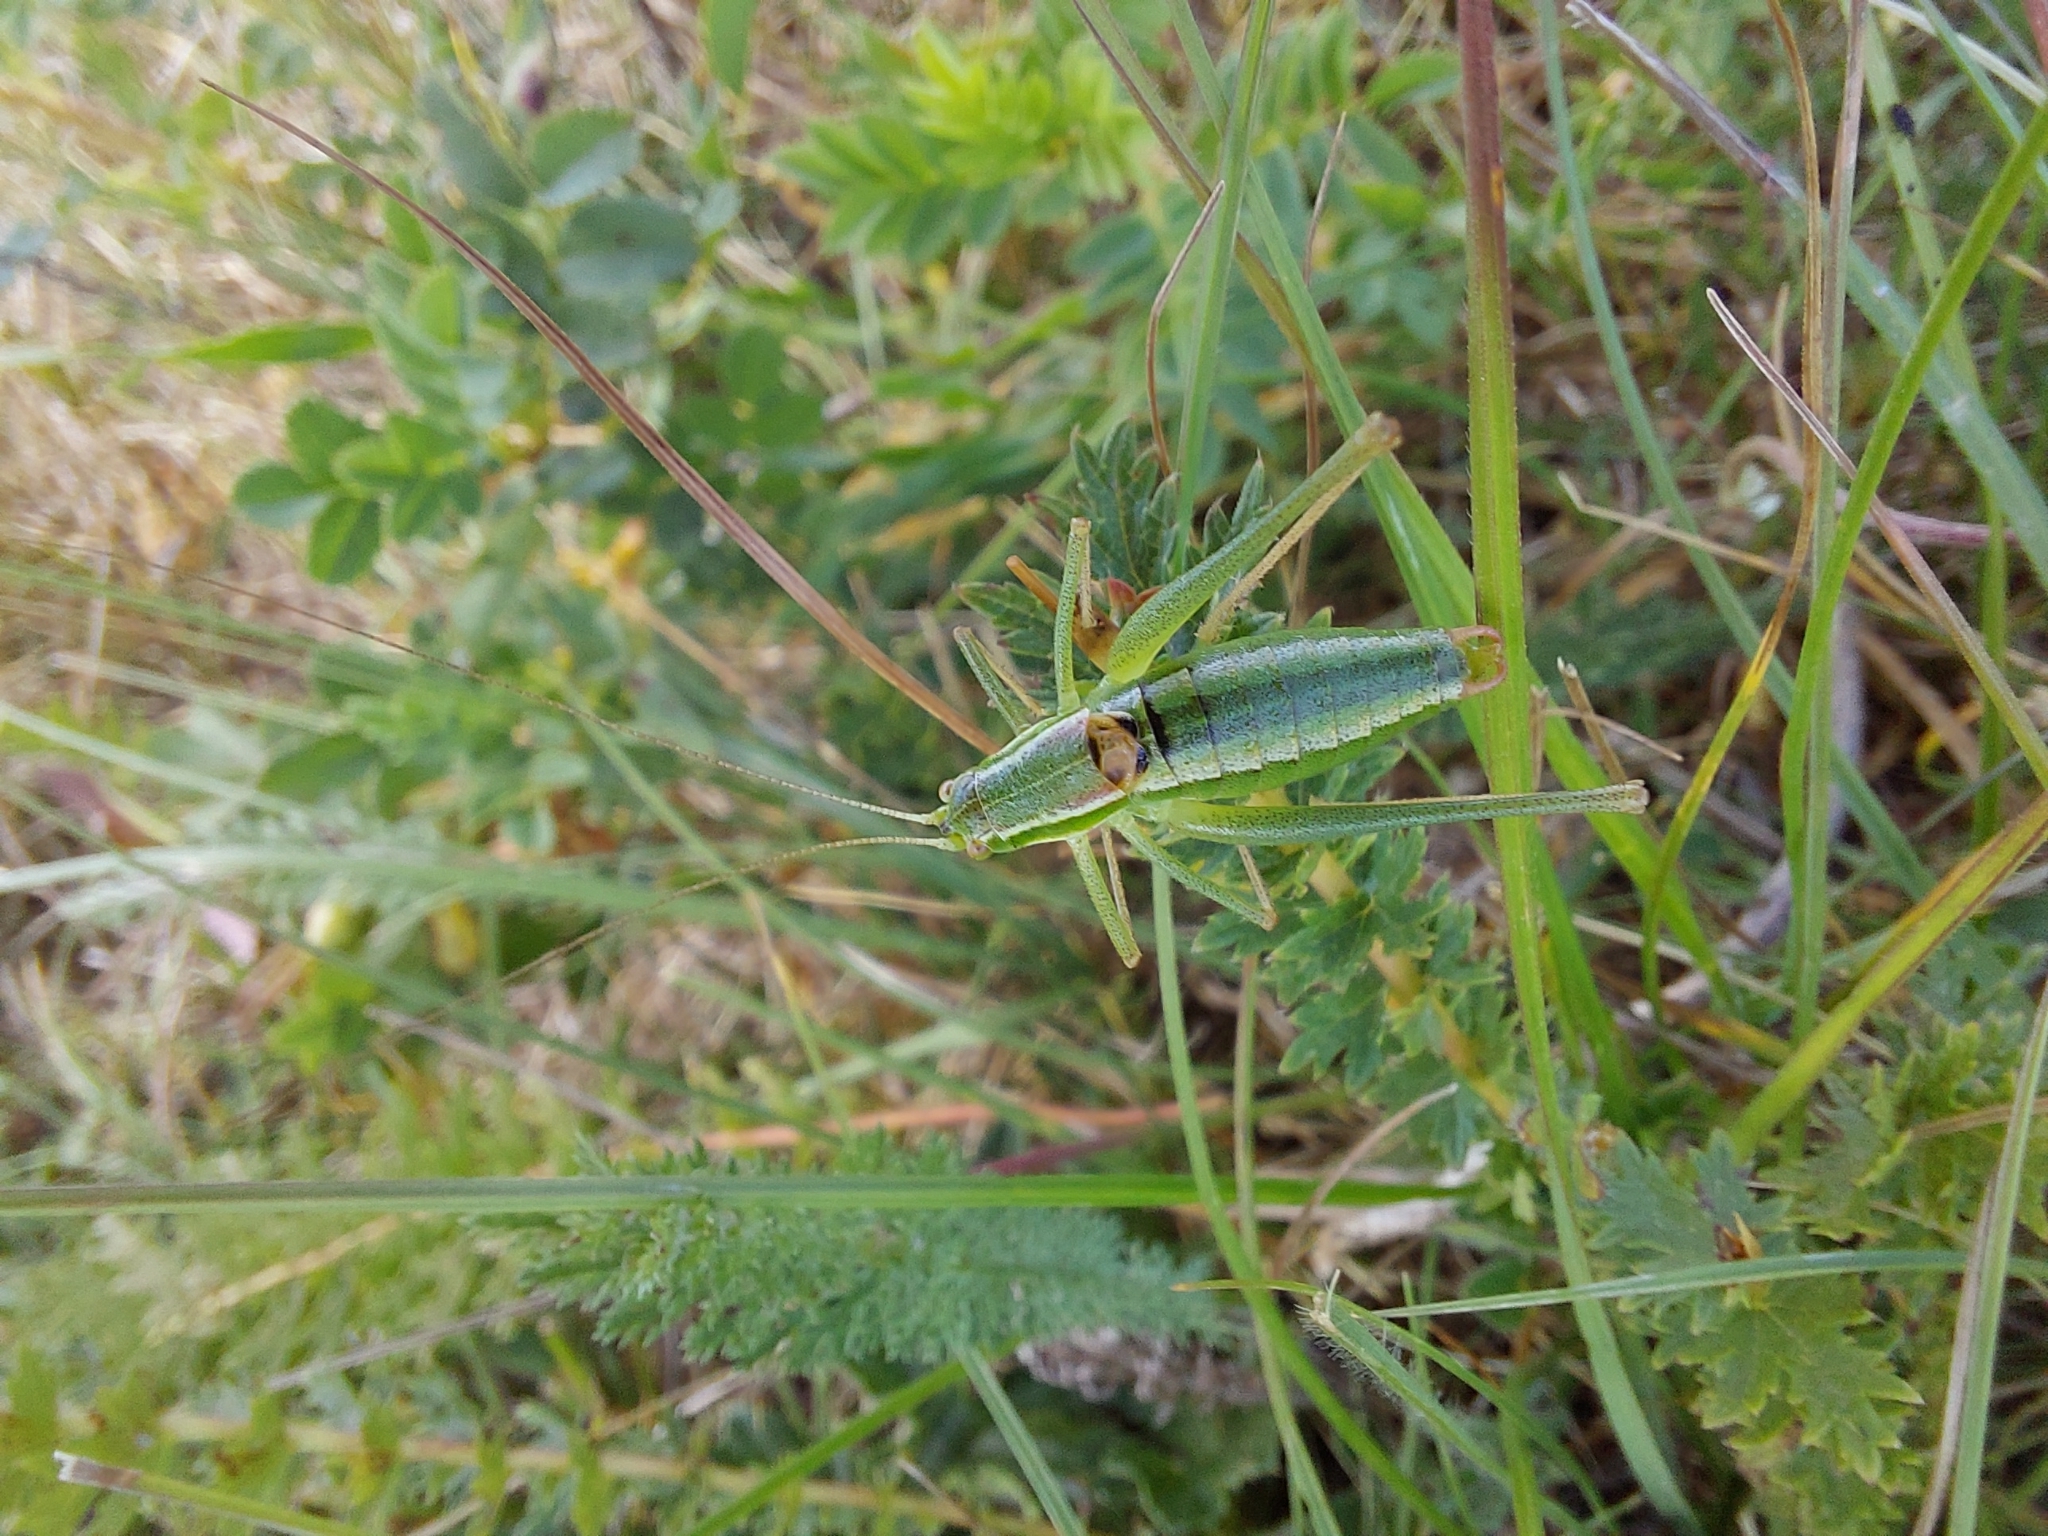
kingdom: Animalia
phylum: Arthropoda
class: Insecta
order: Orthoptera
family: Tettigoniidae
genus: Poecilimon
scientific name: Poecilimon elegans
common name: Elegant bright bush-cricket
